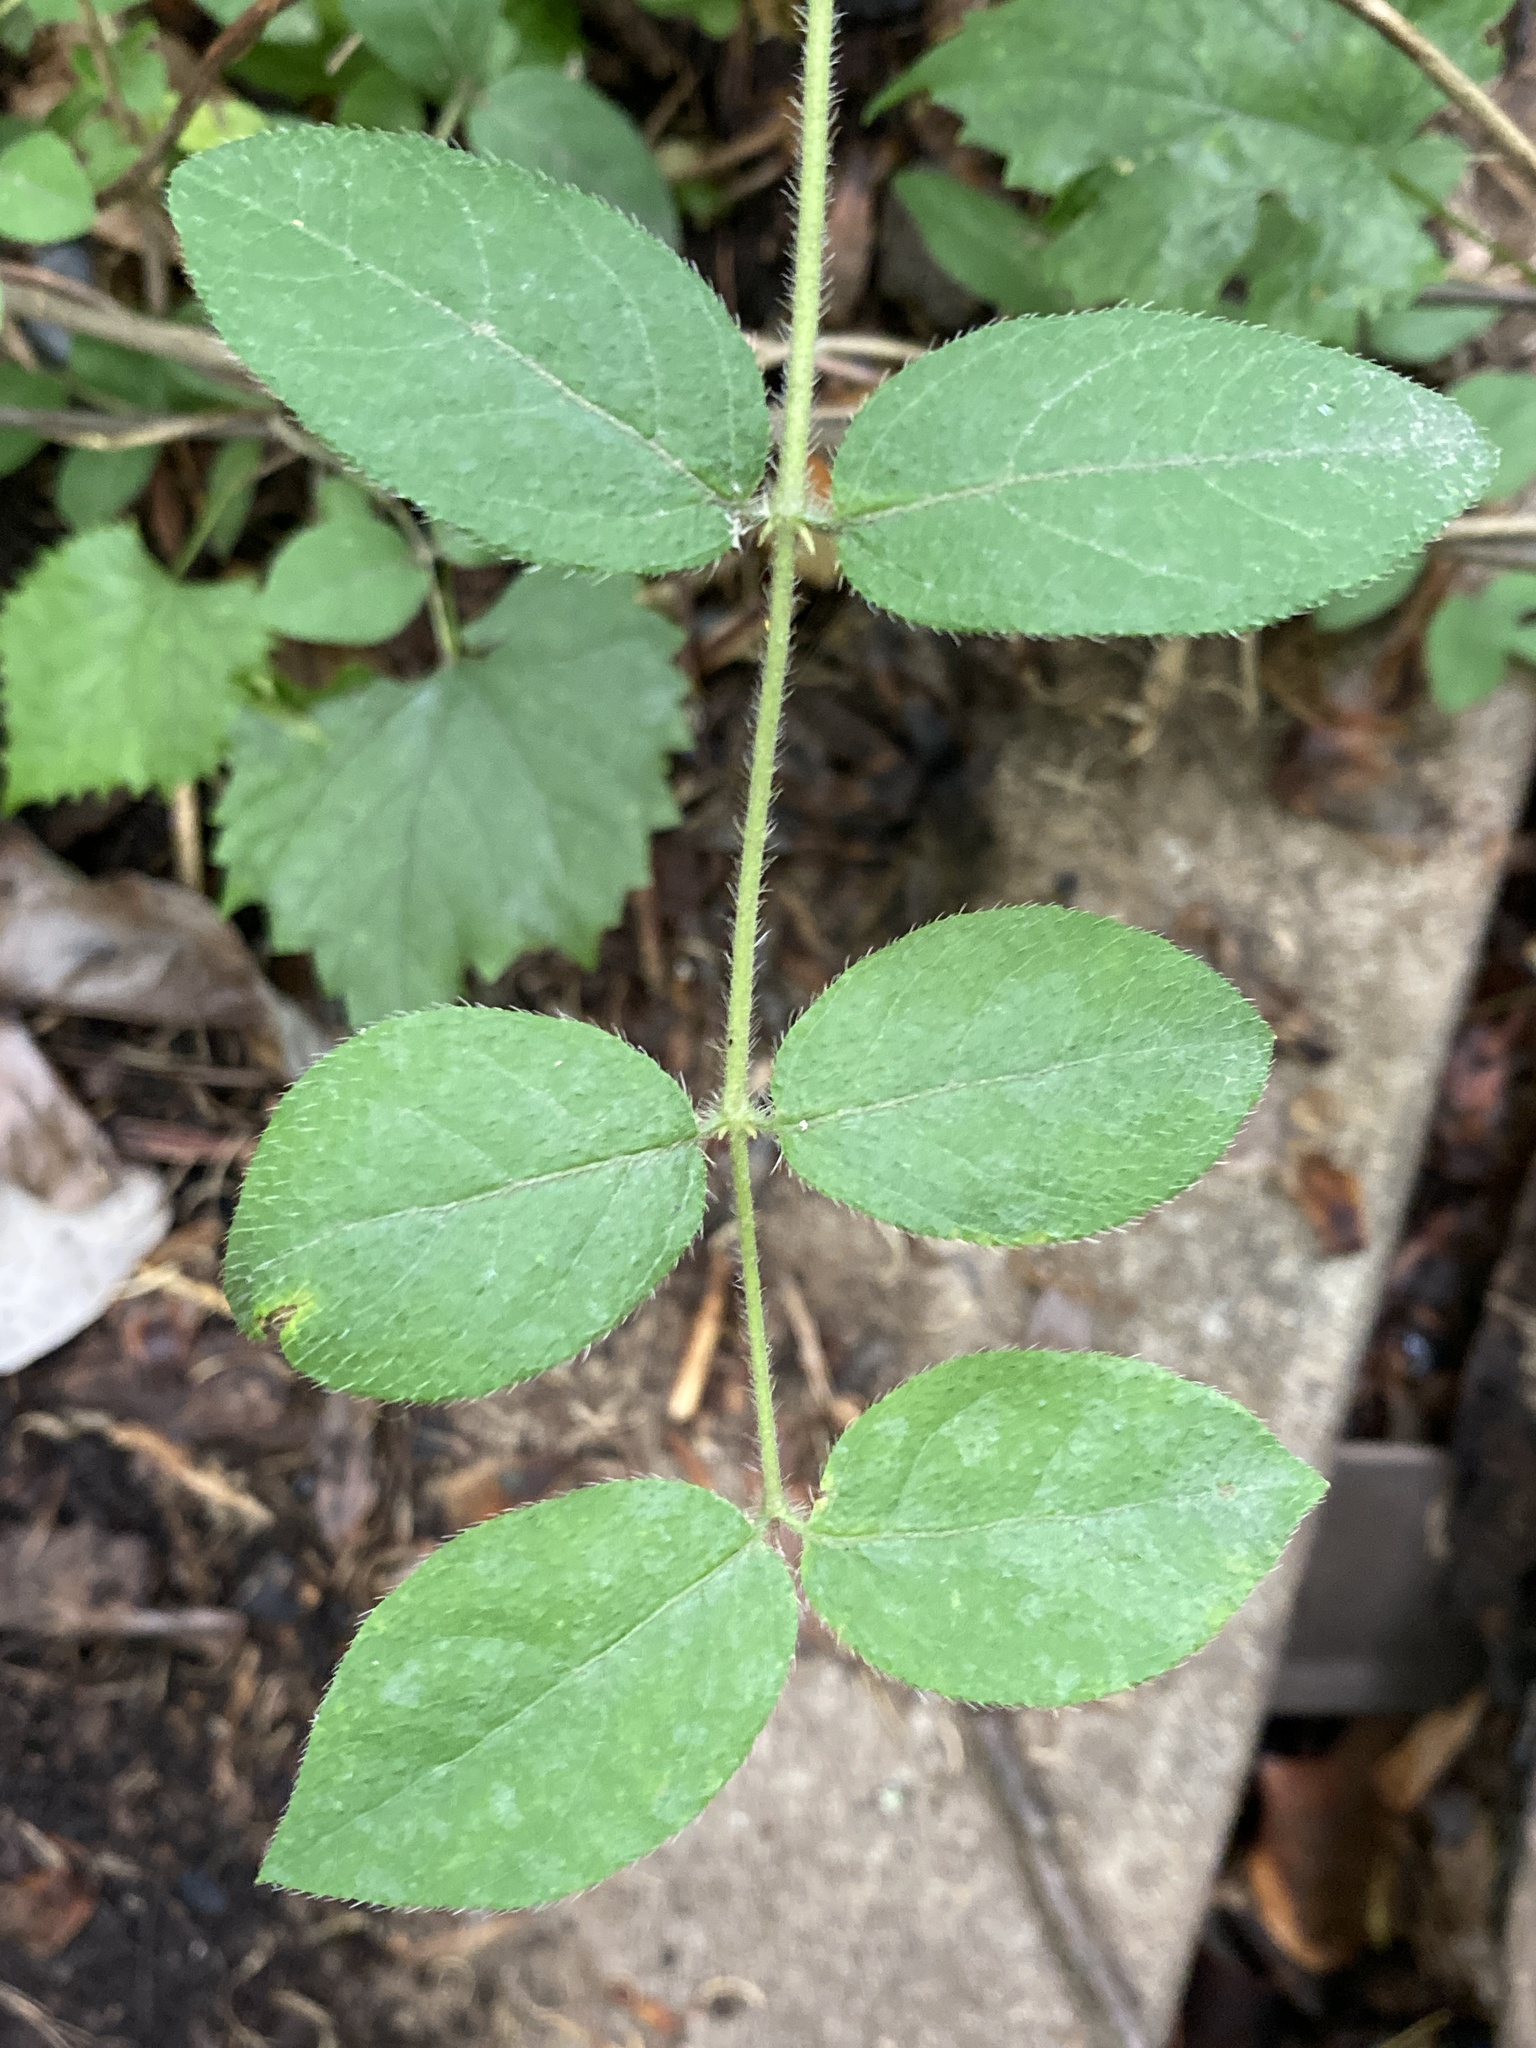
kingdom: Plantae
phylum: Tracheophyta
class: Magnoliopsida
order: Dipsacales
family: Caprifoliaceae
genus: Lonicera
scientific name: Lonicera fragrantissima
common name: Fragrant honeysuckle
